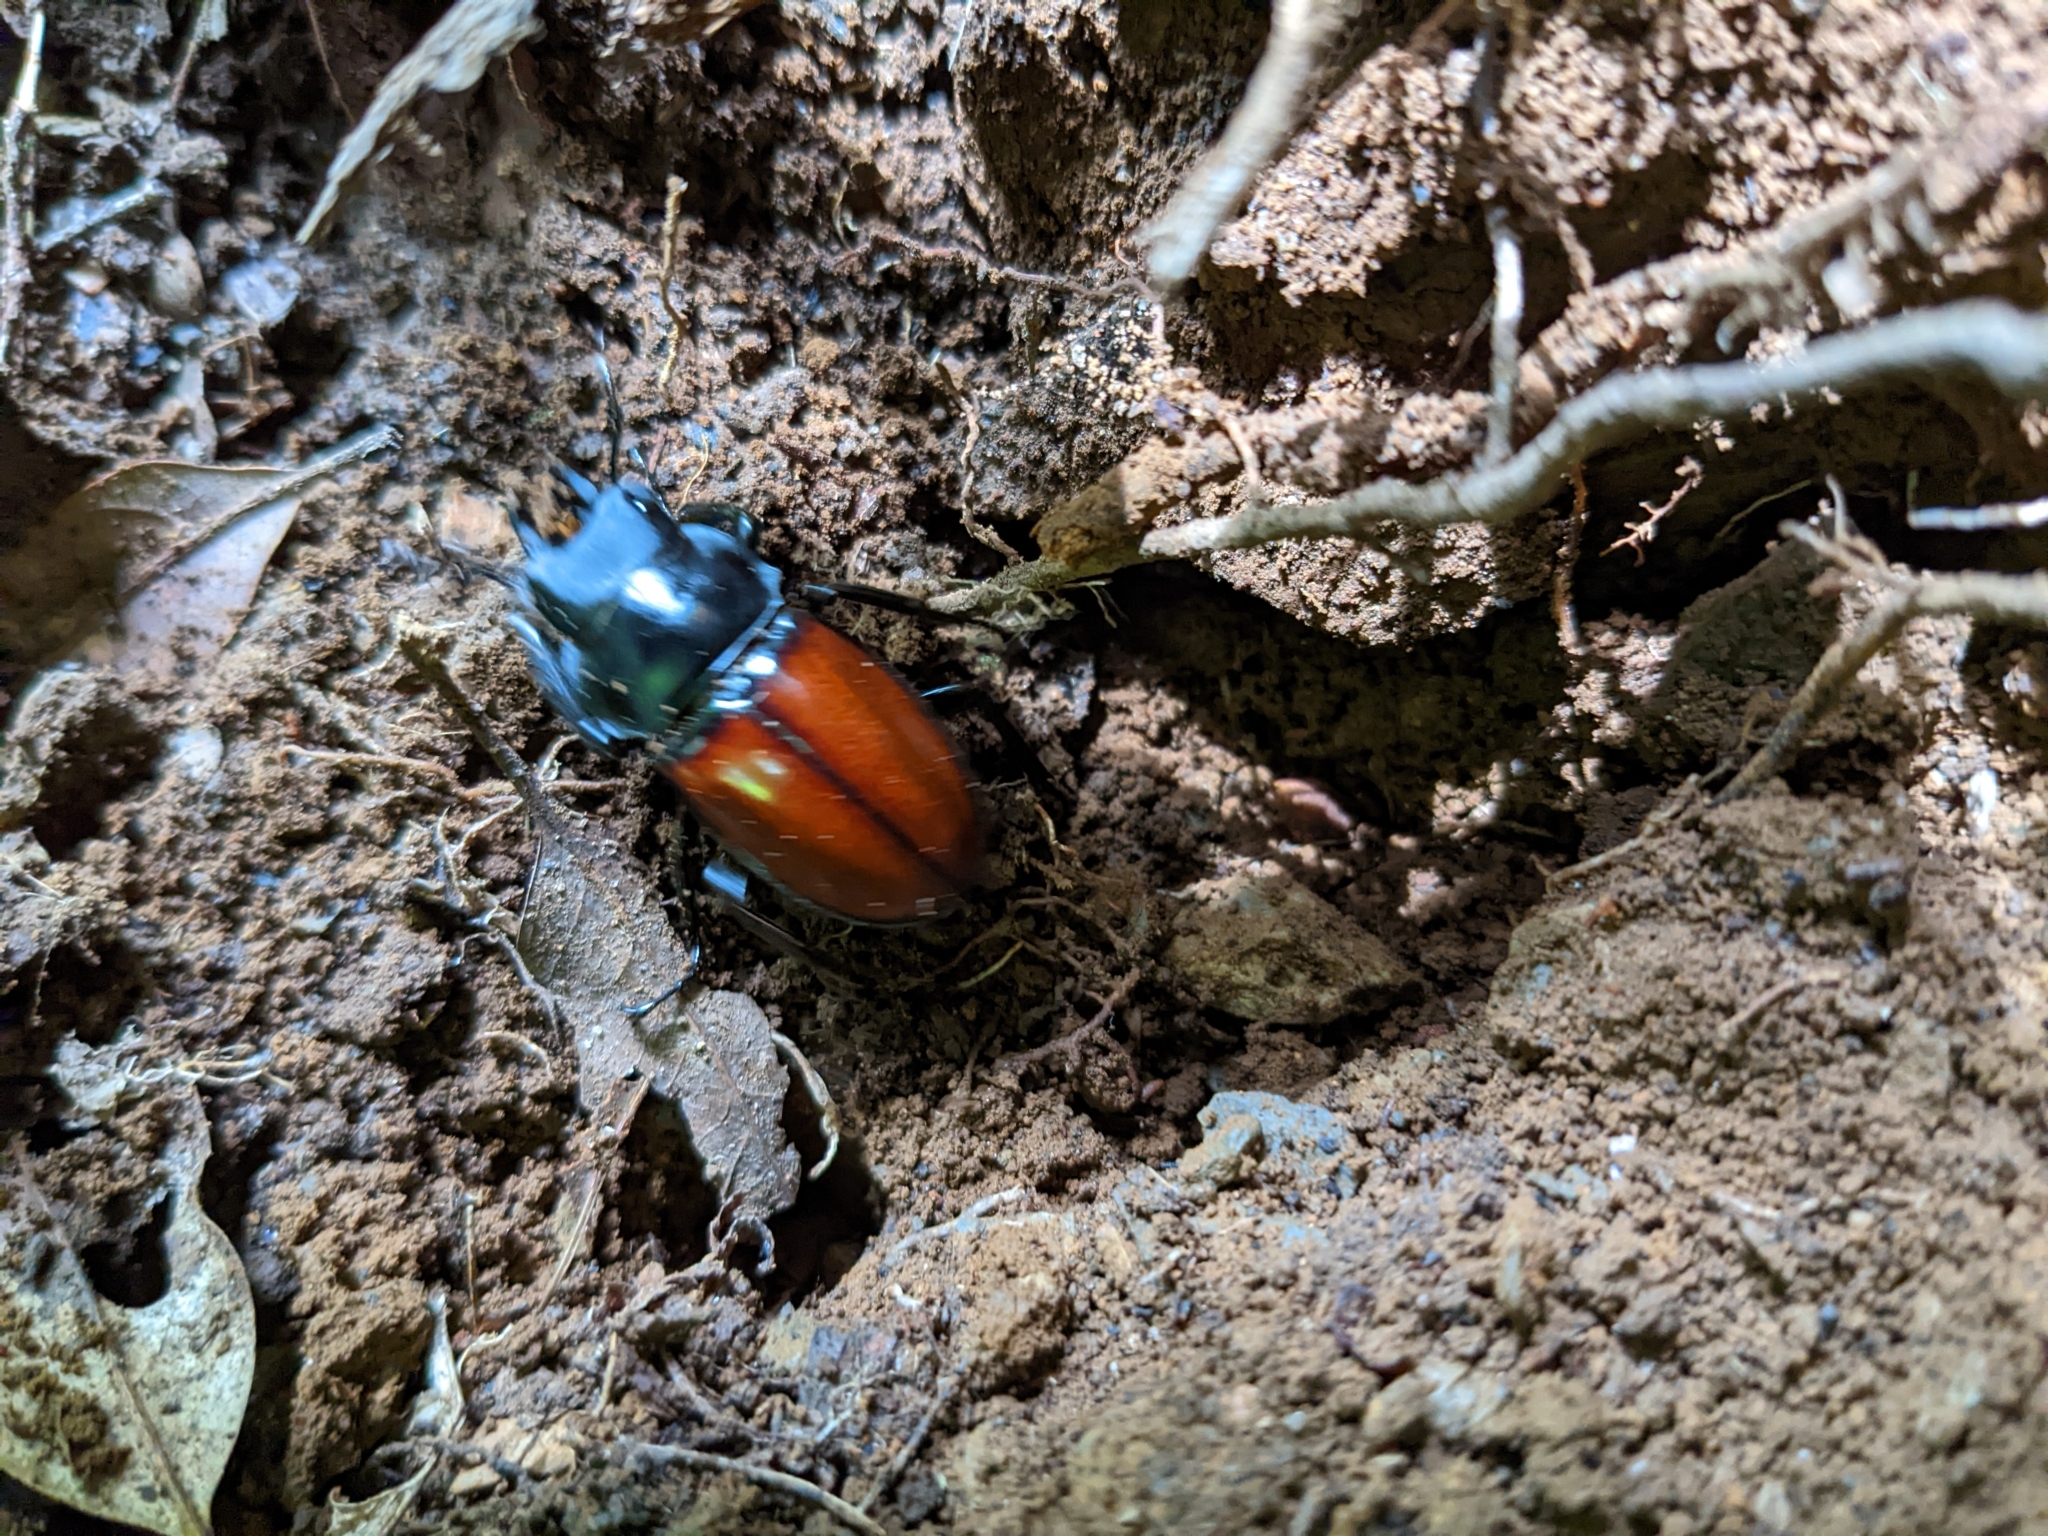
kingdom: Animalia
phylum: Arthropoda
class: Insecta
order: Coleoptera
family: Lucanidae
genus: Neolucanus
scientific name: Neolucanus swinhoei
